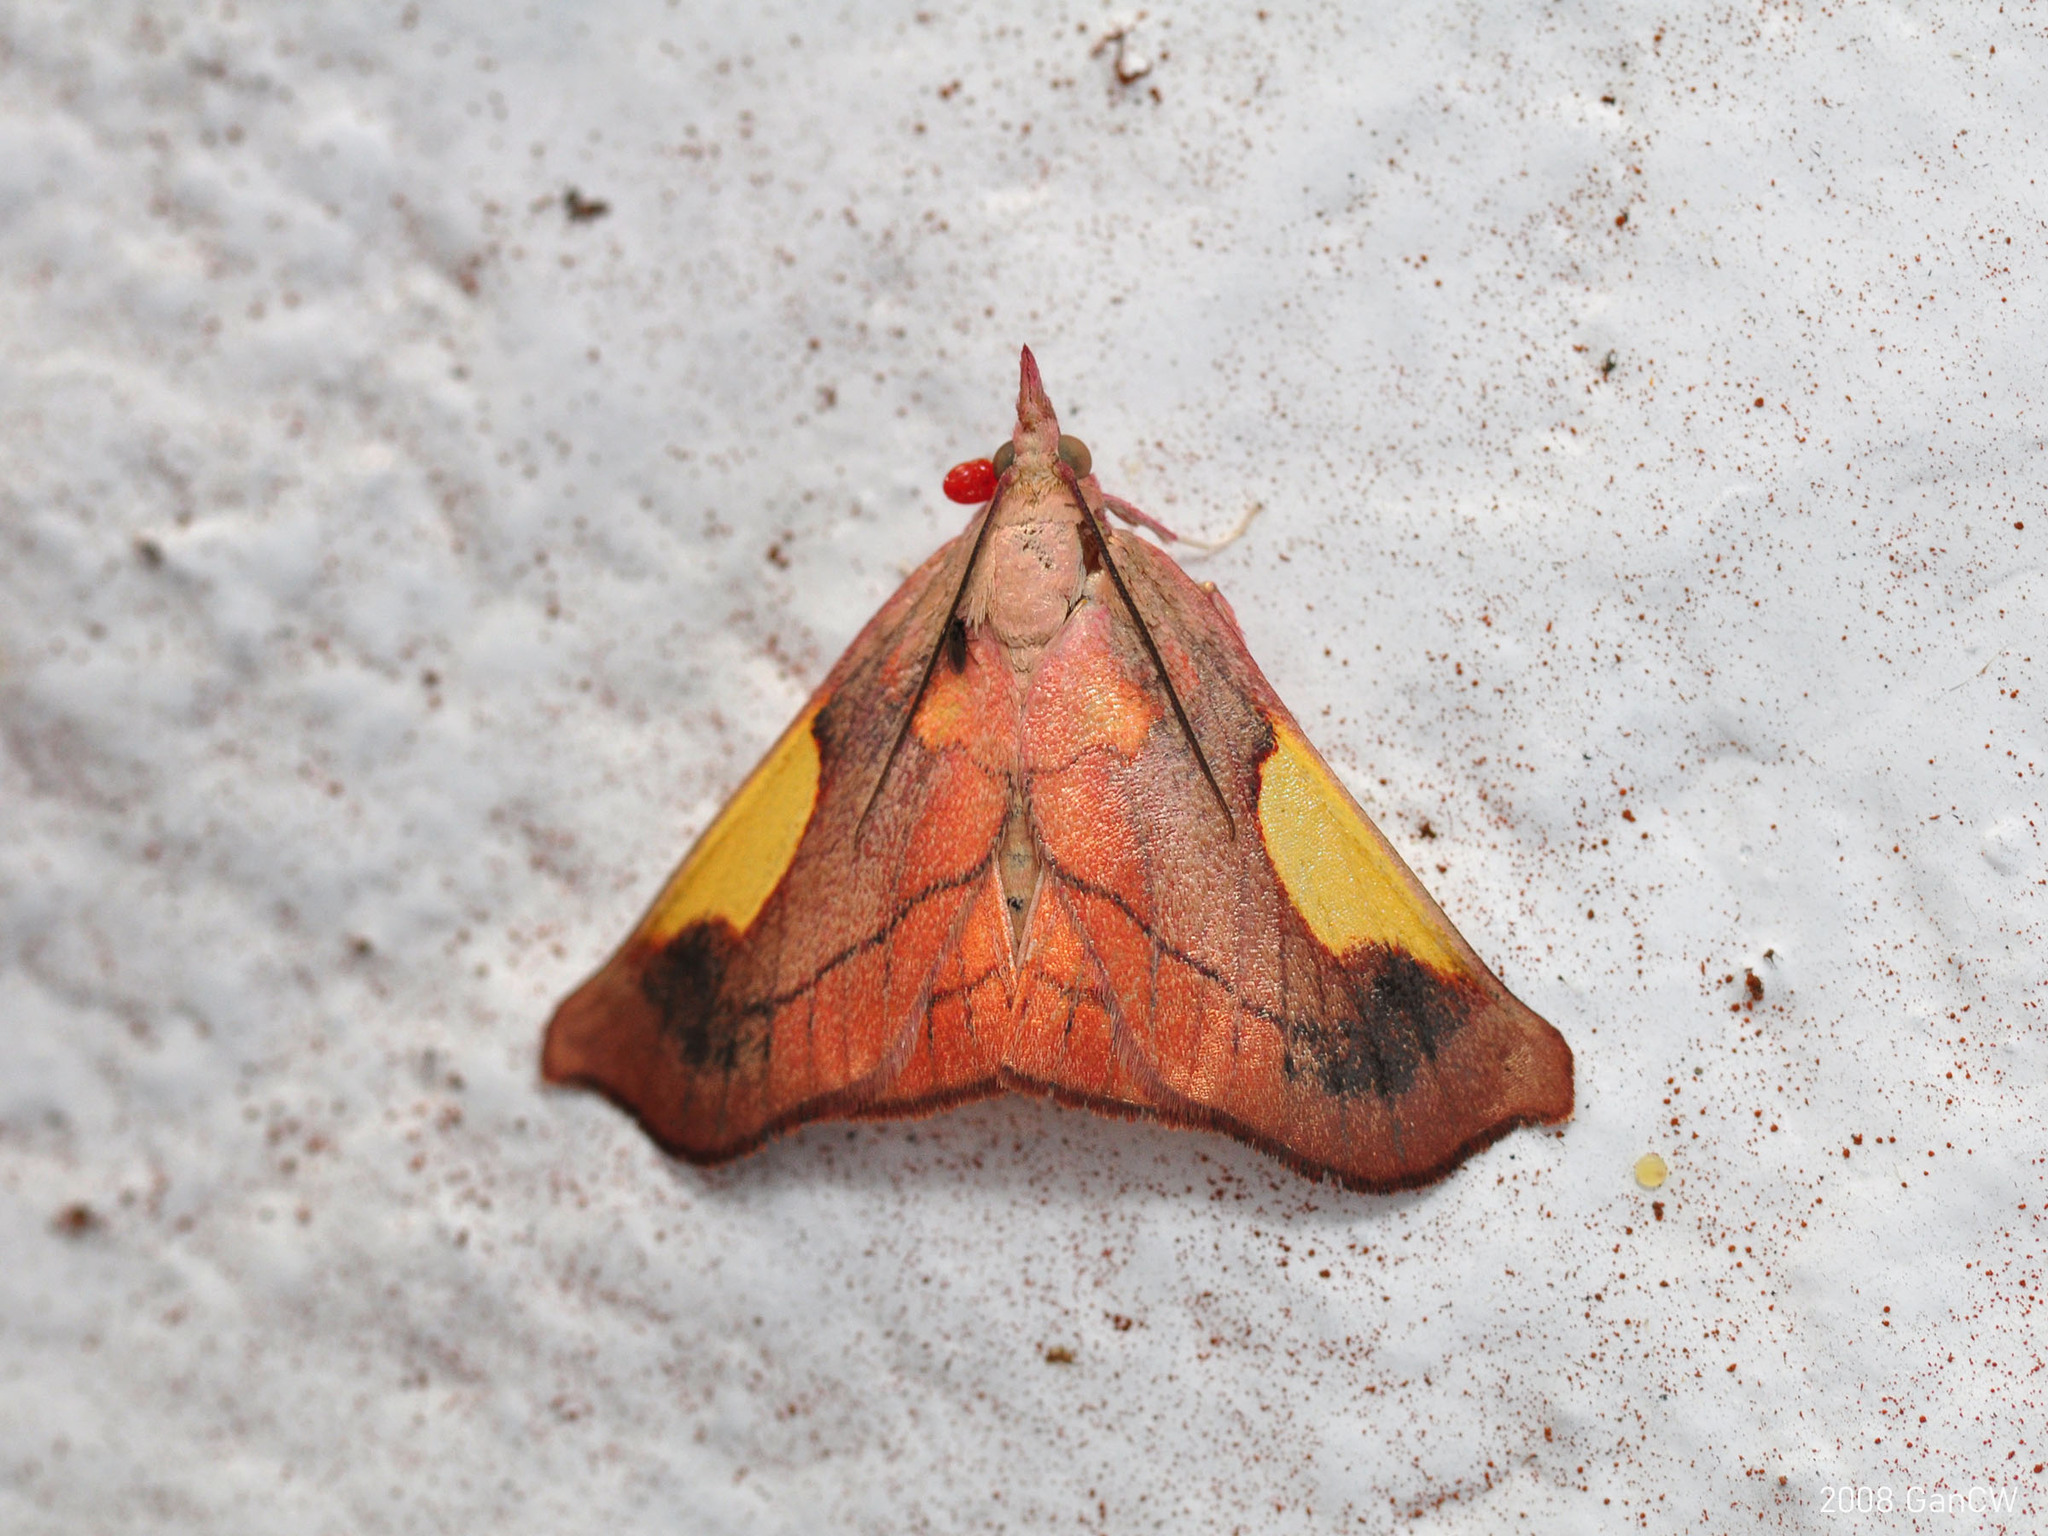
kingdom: Animalia
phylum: Arthropoda
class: Insecta
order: Lepidoptera
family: Pyralidae
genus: Orybina
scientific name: Orybina kobesi
